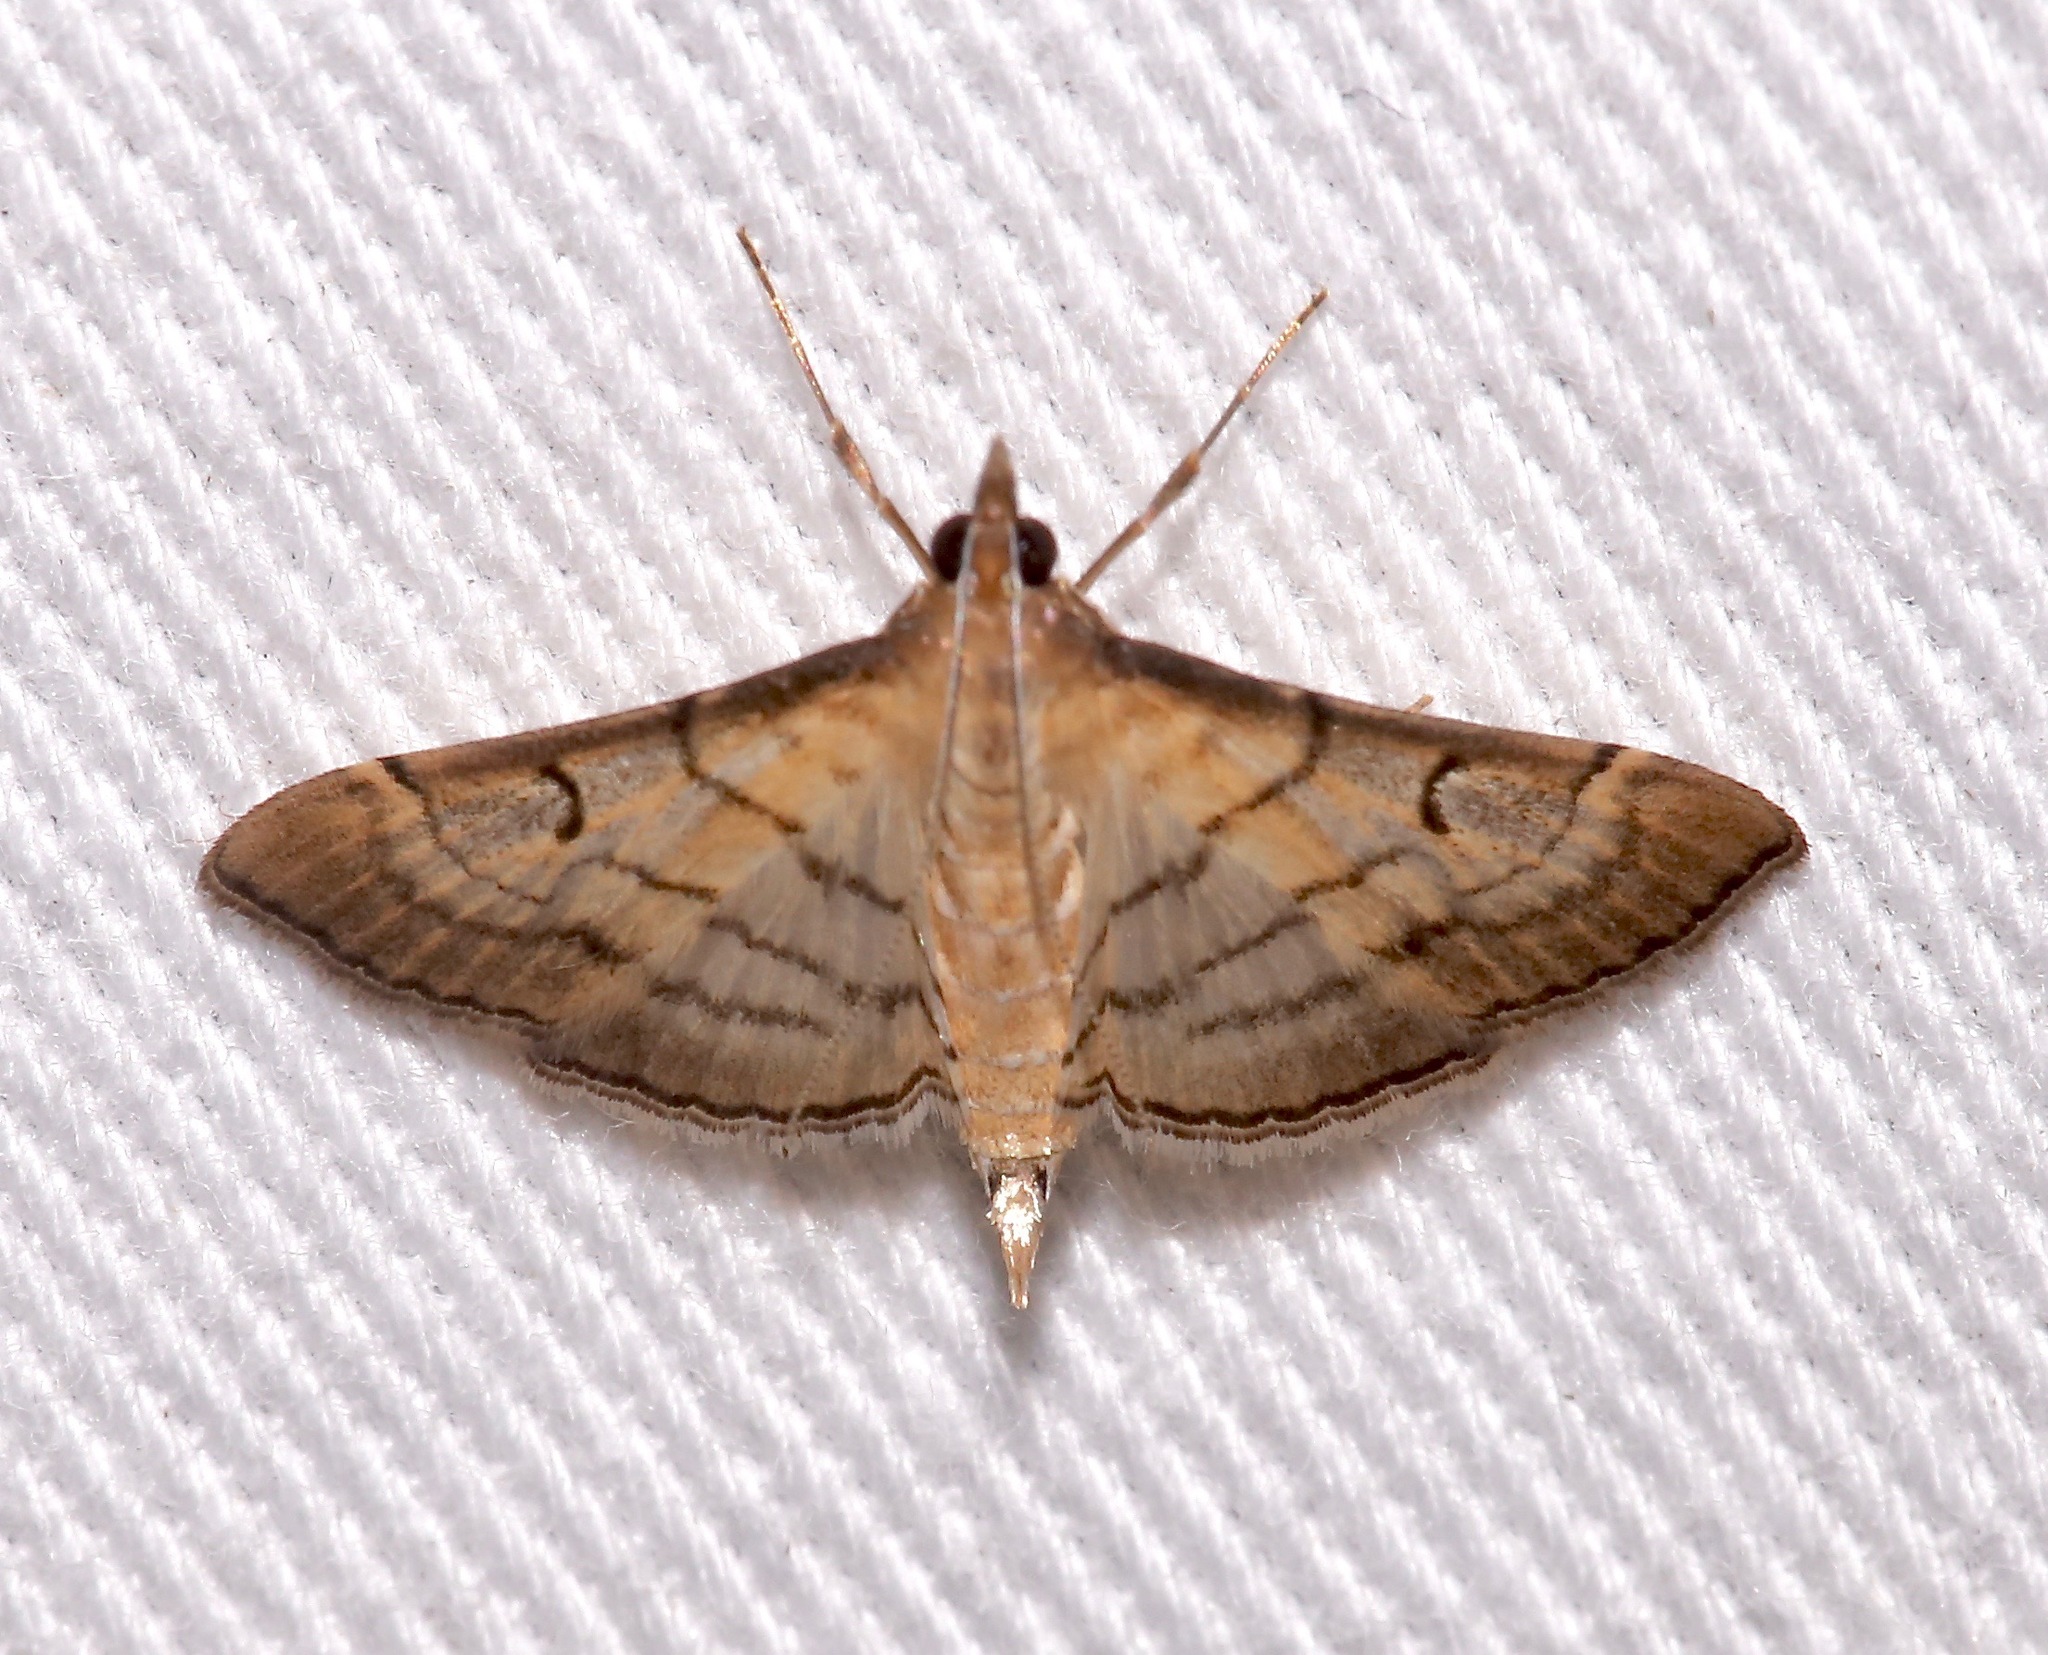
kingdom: Animalia
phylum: Arthropoda
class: Insecta
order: Lepidoptera
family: Crambidae
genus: Cnaphalocrocis
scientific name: Cnaphalocrocis Marasmia trapezalis
